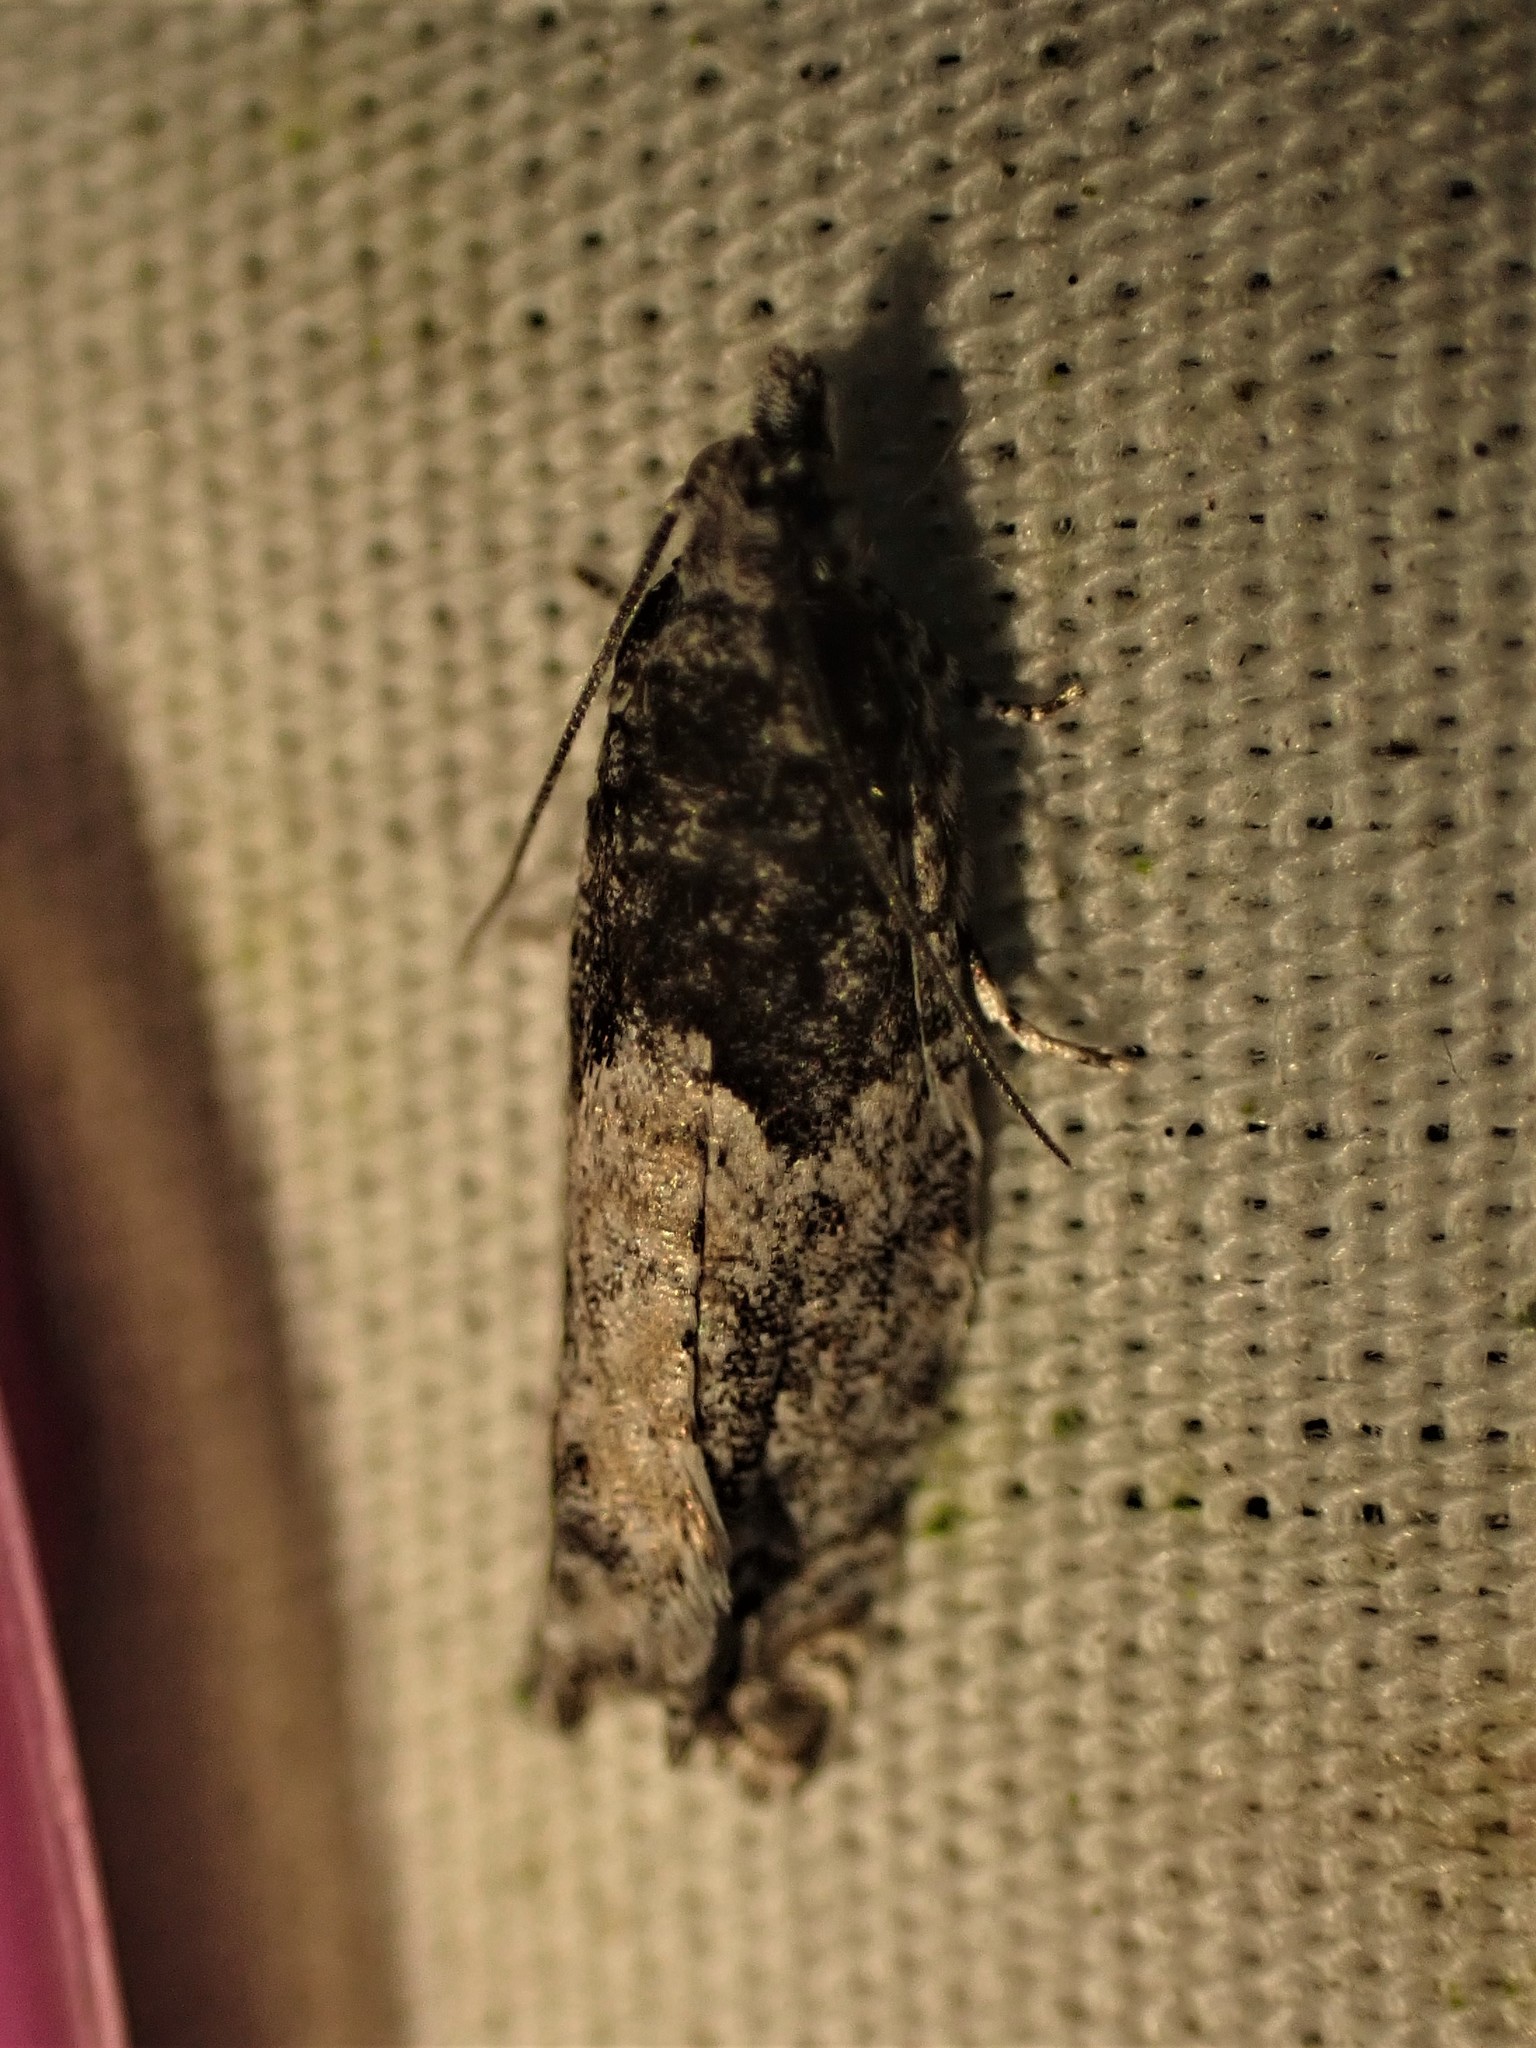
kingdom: Animalia
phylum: Arthropoda
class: Insecta
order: Lepidoptera
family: Tortricidae
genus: Epinotia
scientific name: Epinotia nisella
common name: Grey poplar bell
